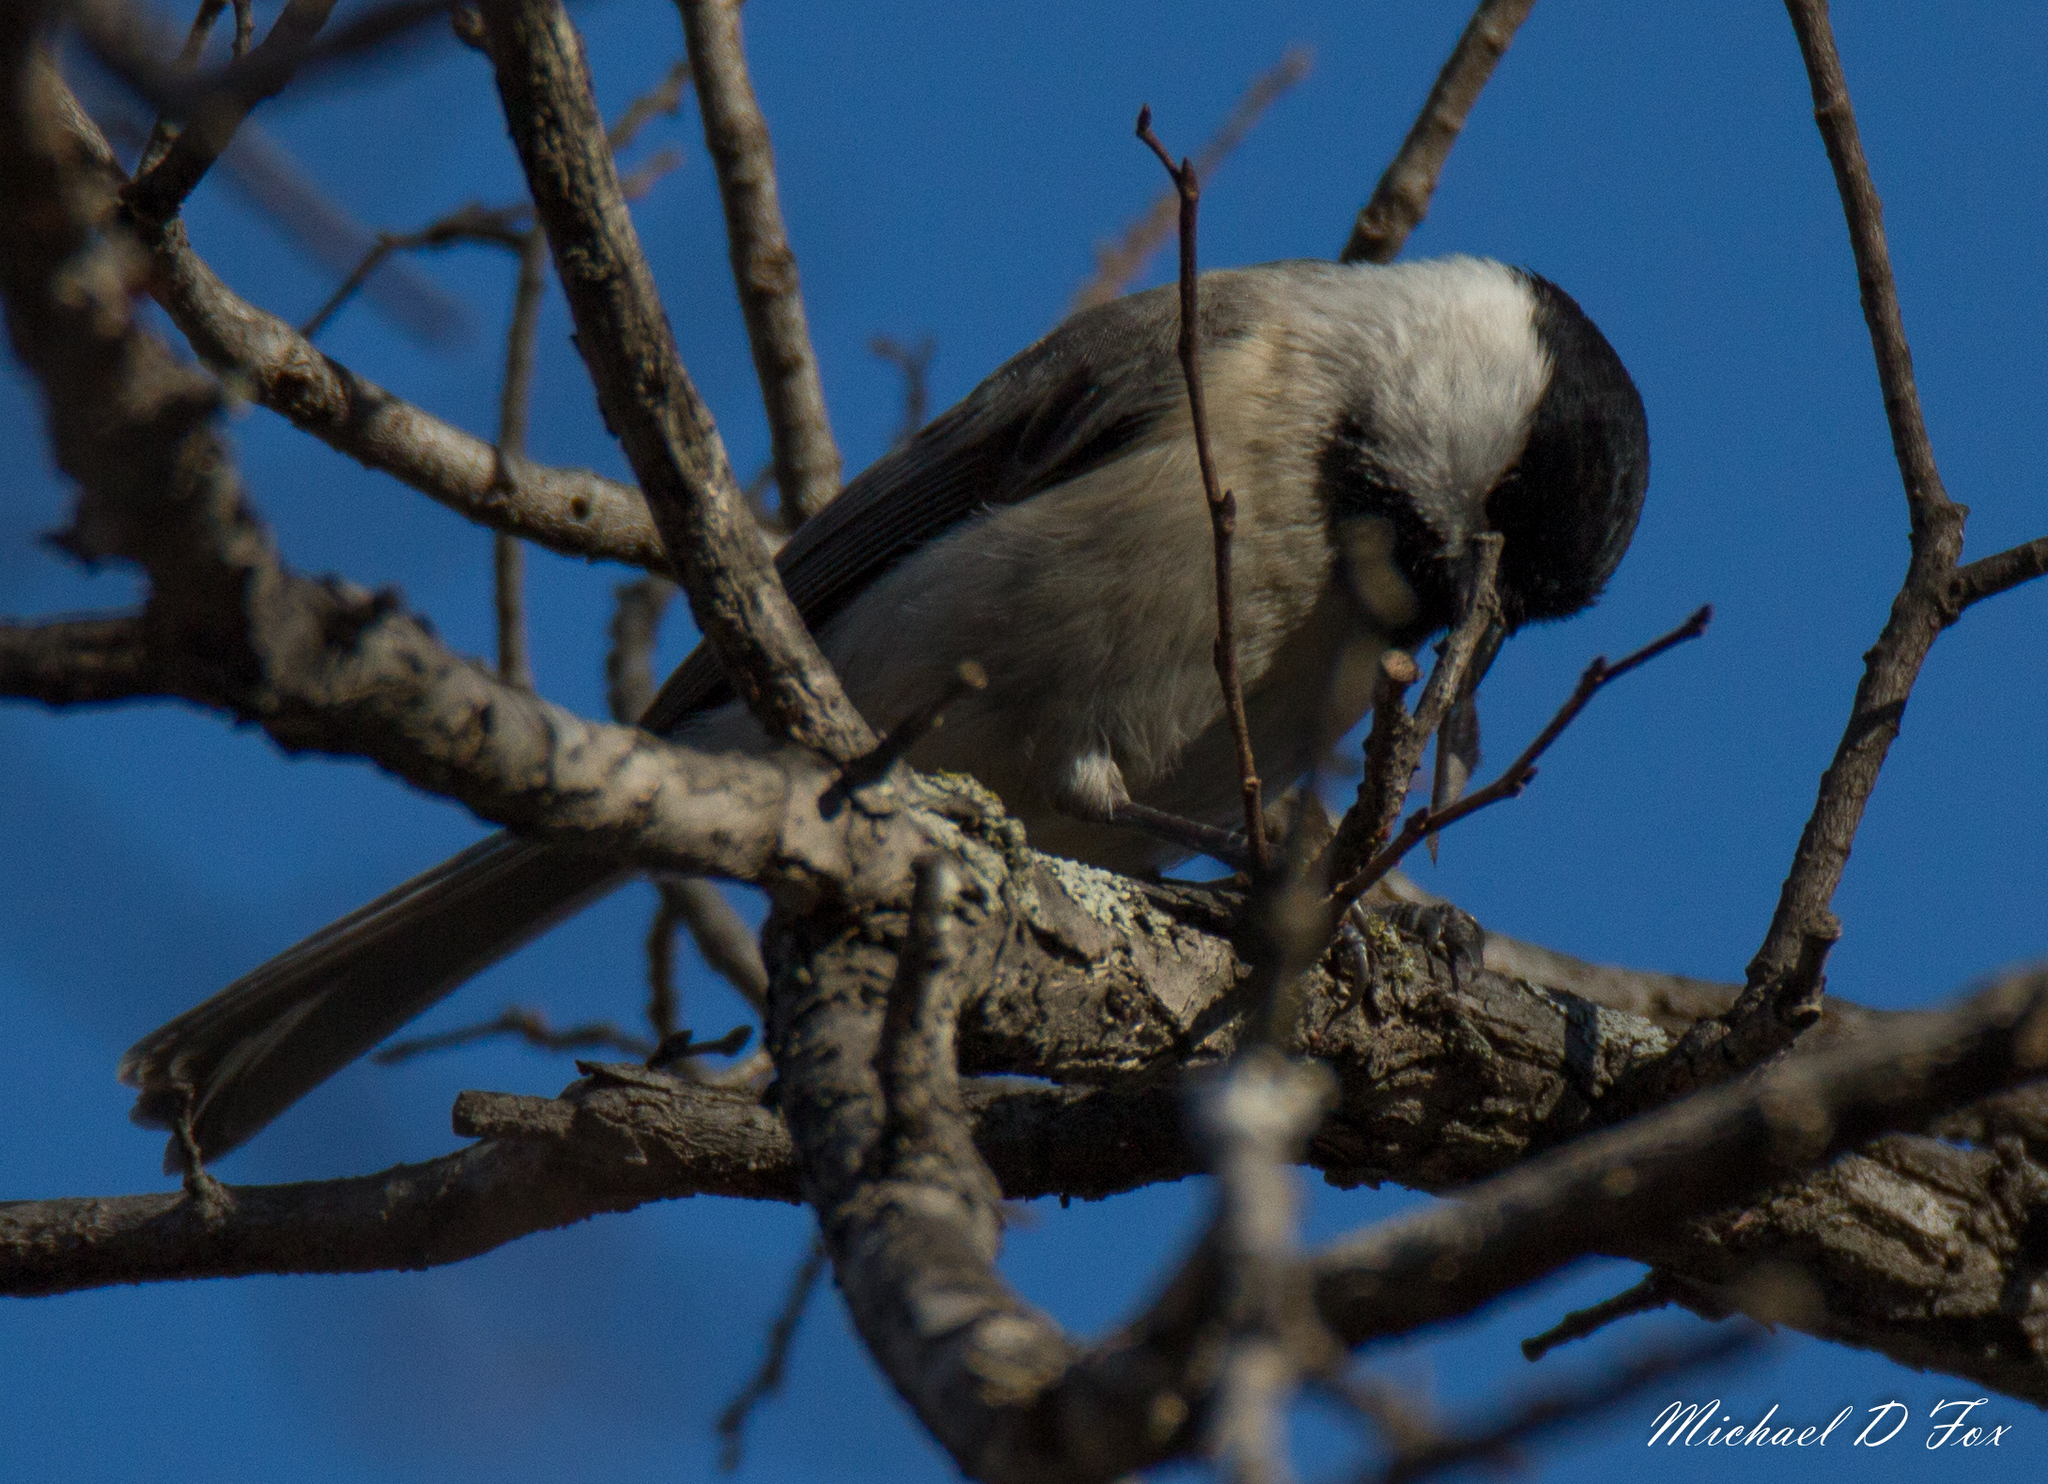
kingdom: Animalia
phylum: Chordata
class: Aves
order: Passeriformes
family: Paridae
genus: Poecile
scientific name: Poecile carolinensis
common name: Carolina chickadee
